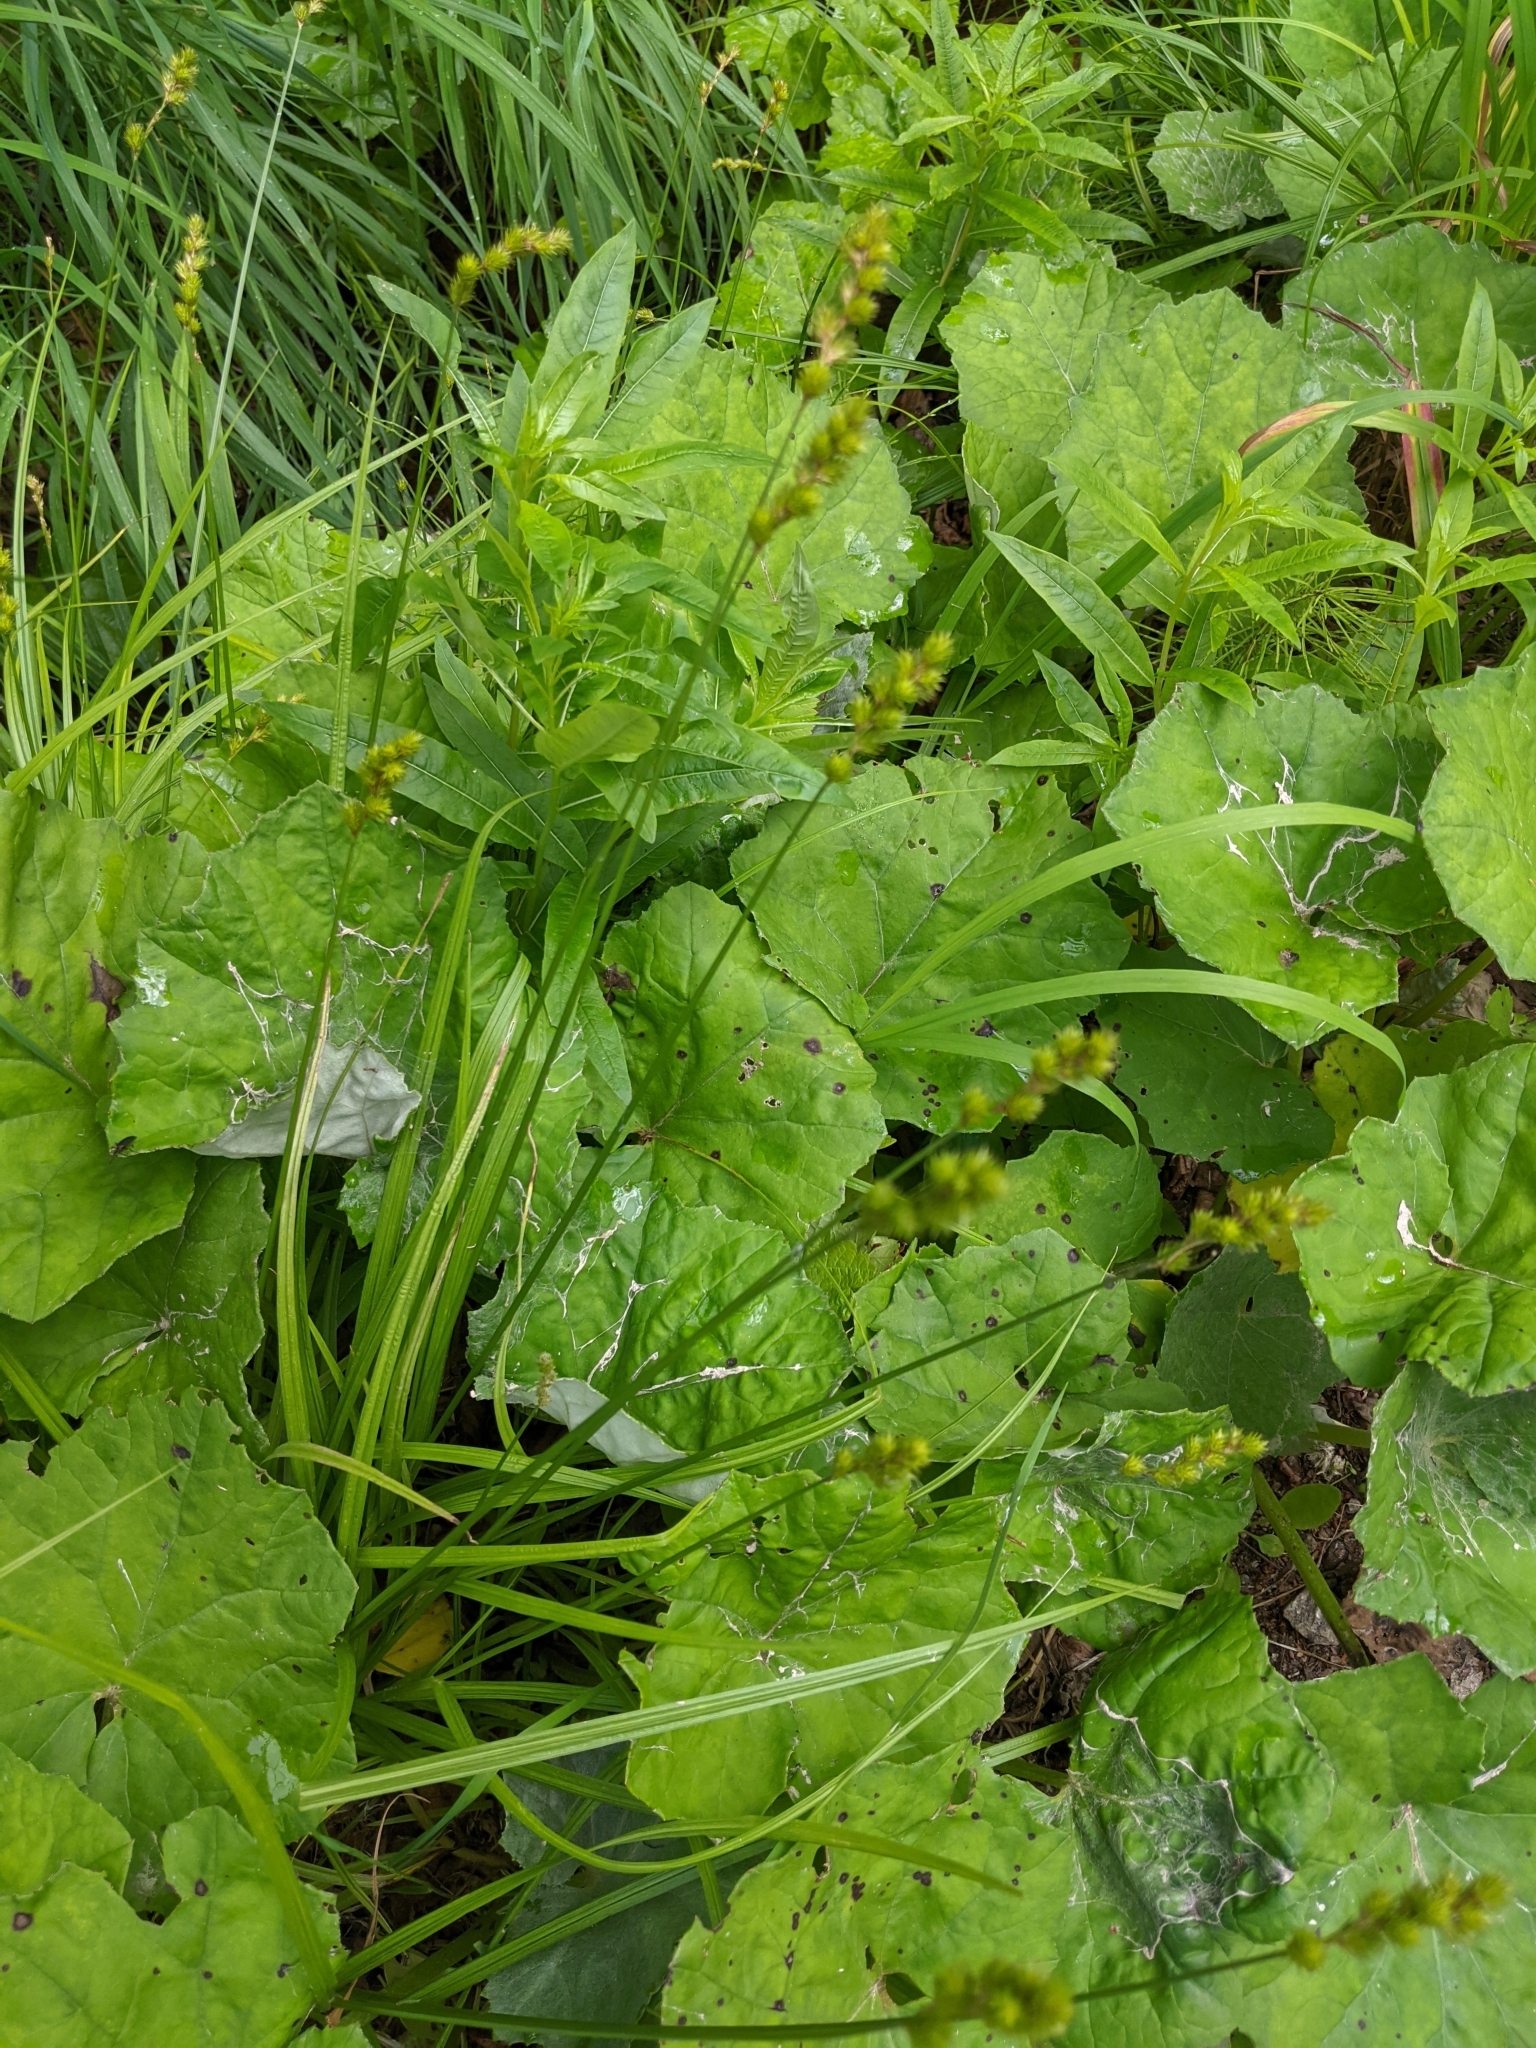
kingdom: Plantae
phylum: Tracheophyta
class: Liliopsida
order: Poales
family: Cyperaceae
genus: Carex
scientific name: Carex projecta
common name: Loose-headed oval sedge
